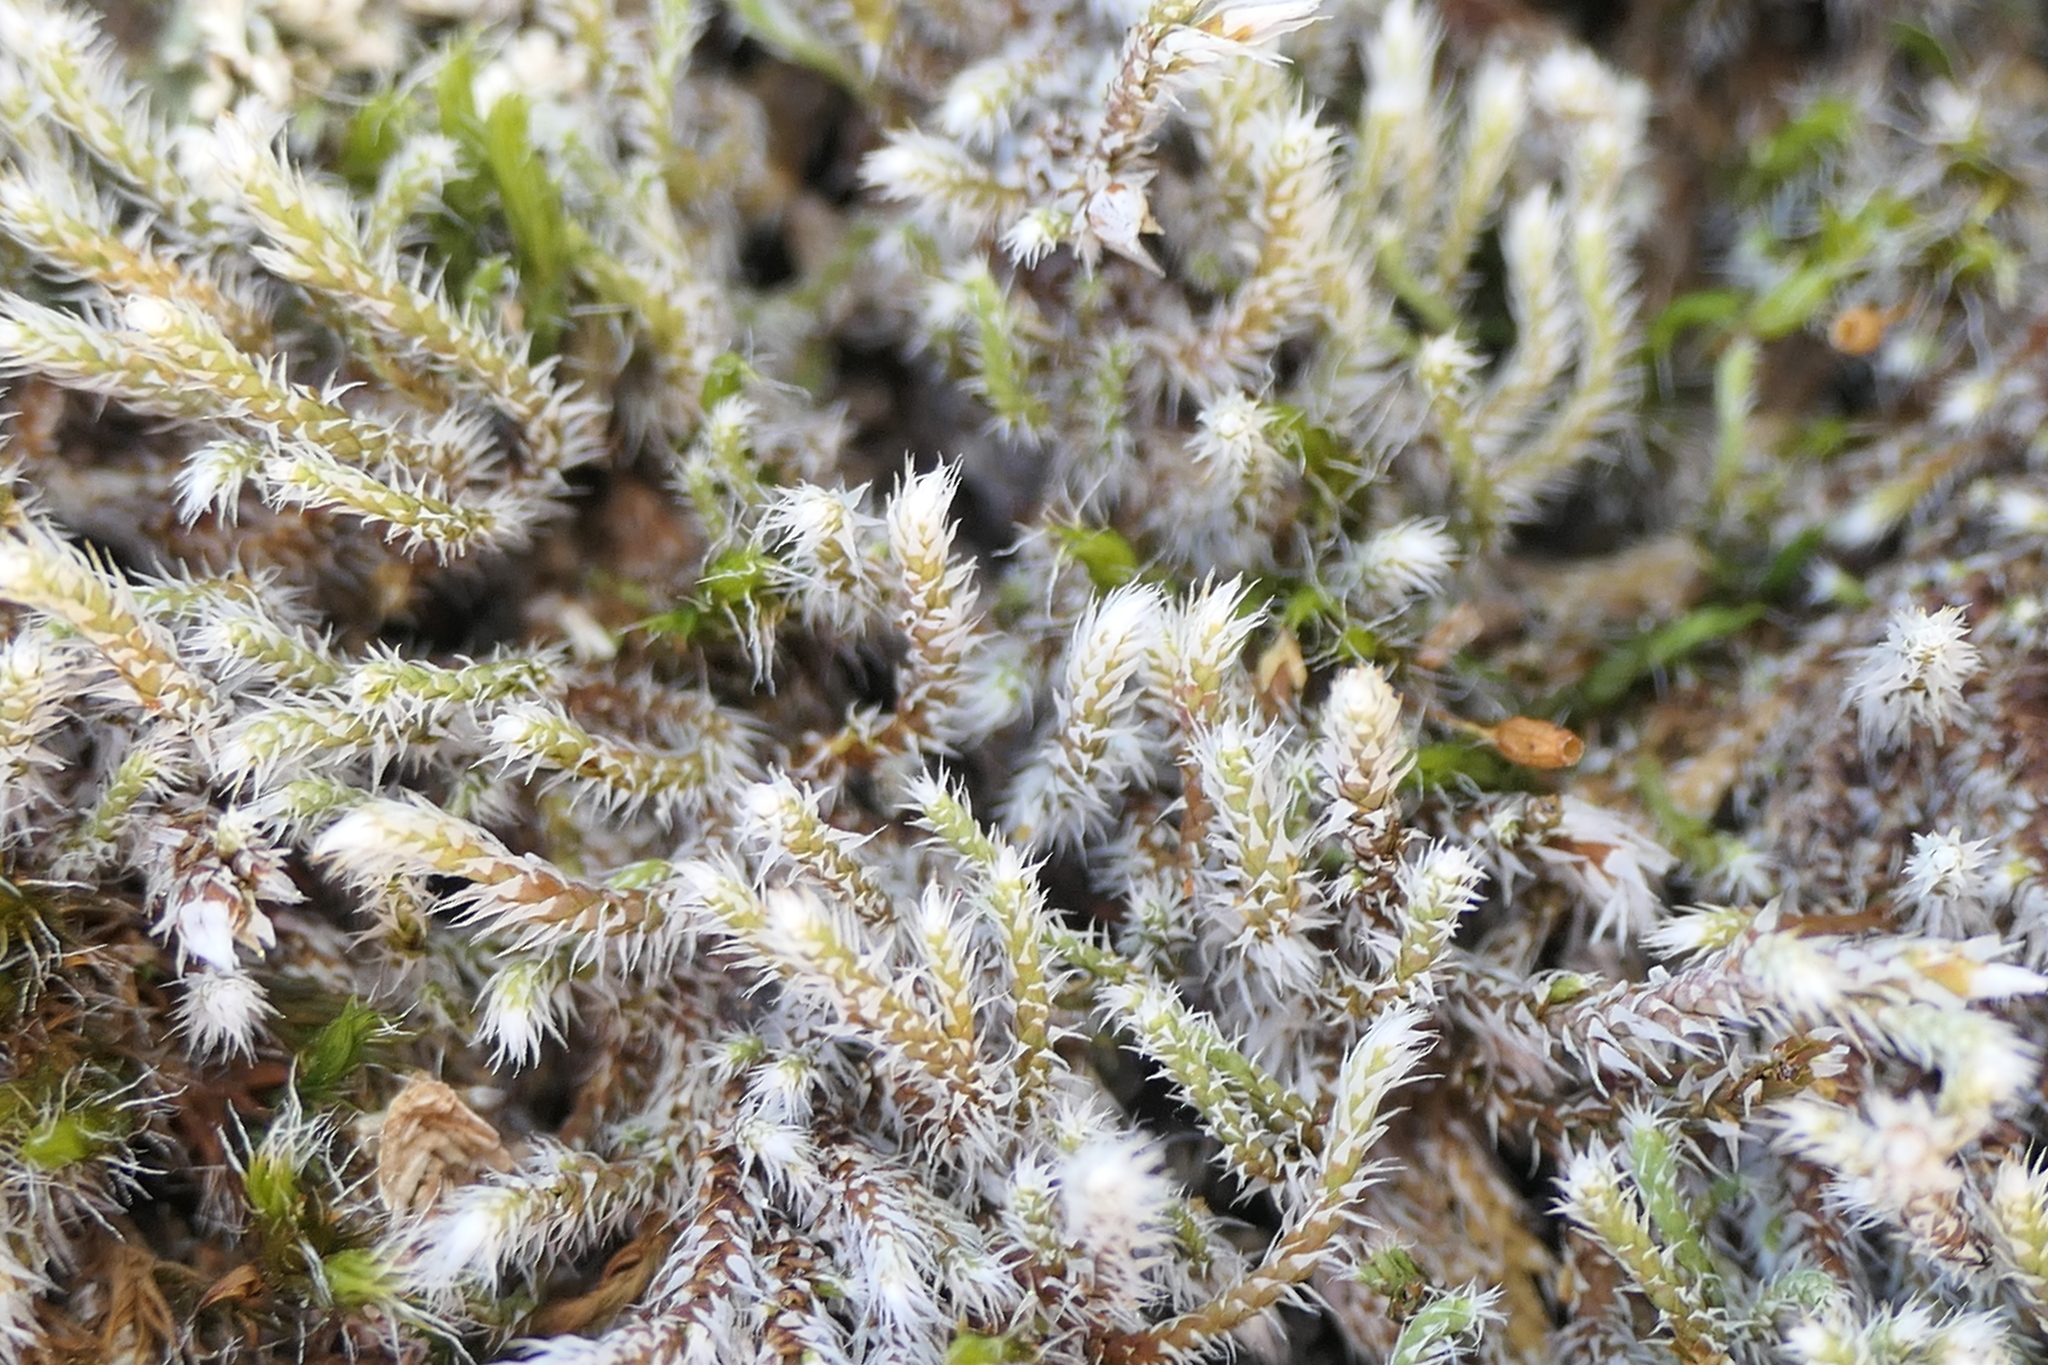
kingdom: Plantae
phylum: Bryophyta
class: Bryopsida
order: Hedwigiales
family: Hedwigiaceae
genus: Hedwigia
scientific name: Hedwigia stellata
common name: Starry hoar-moss
